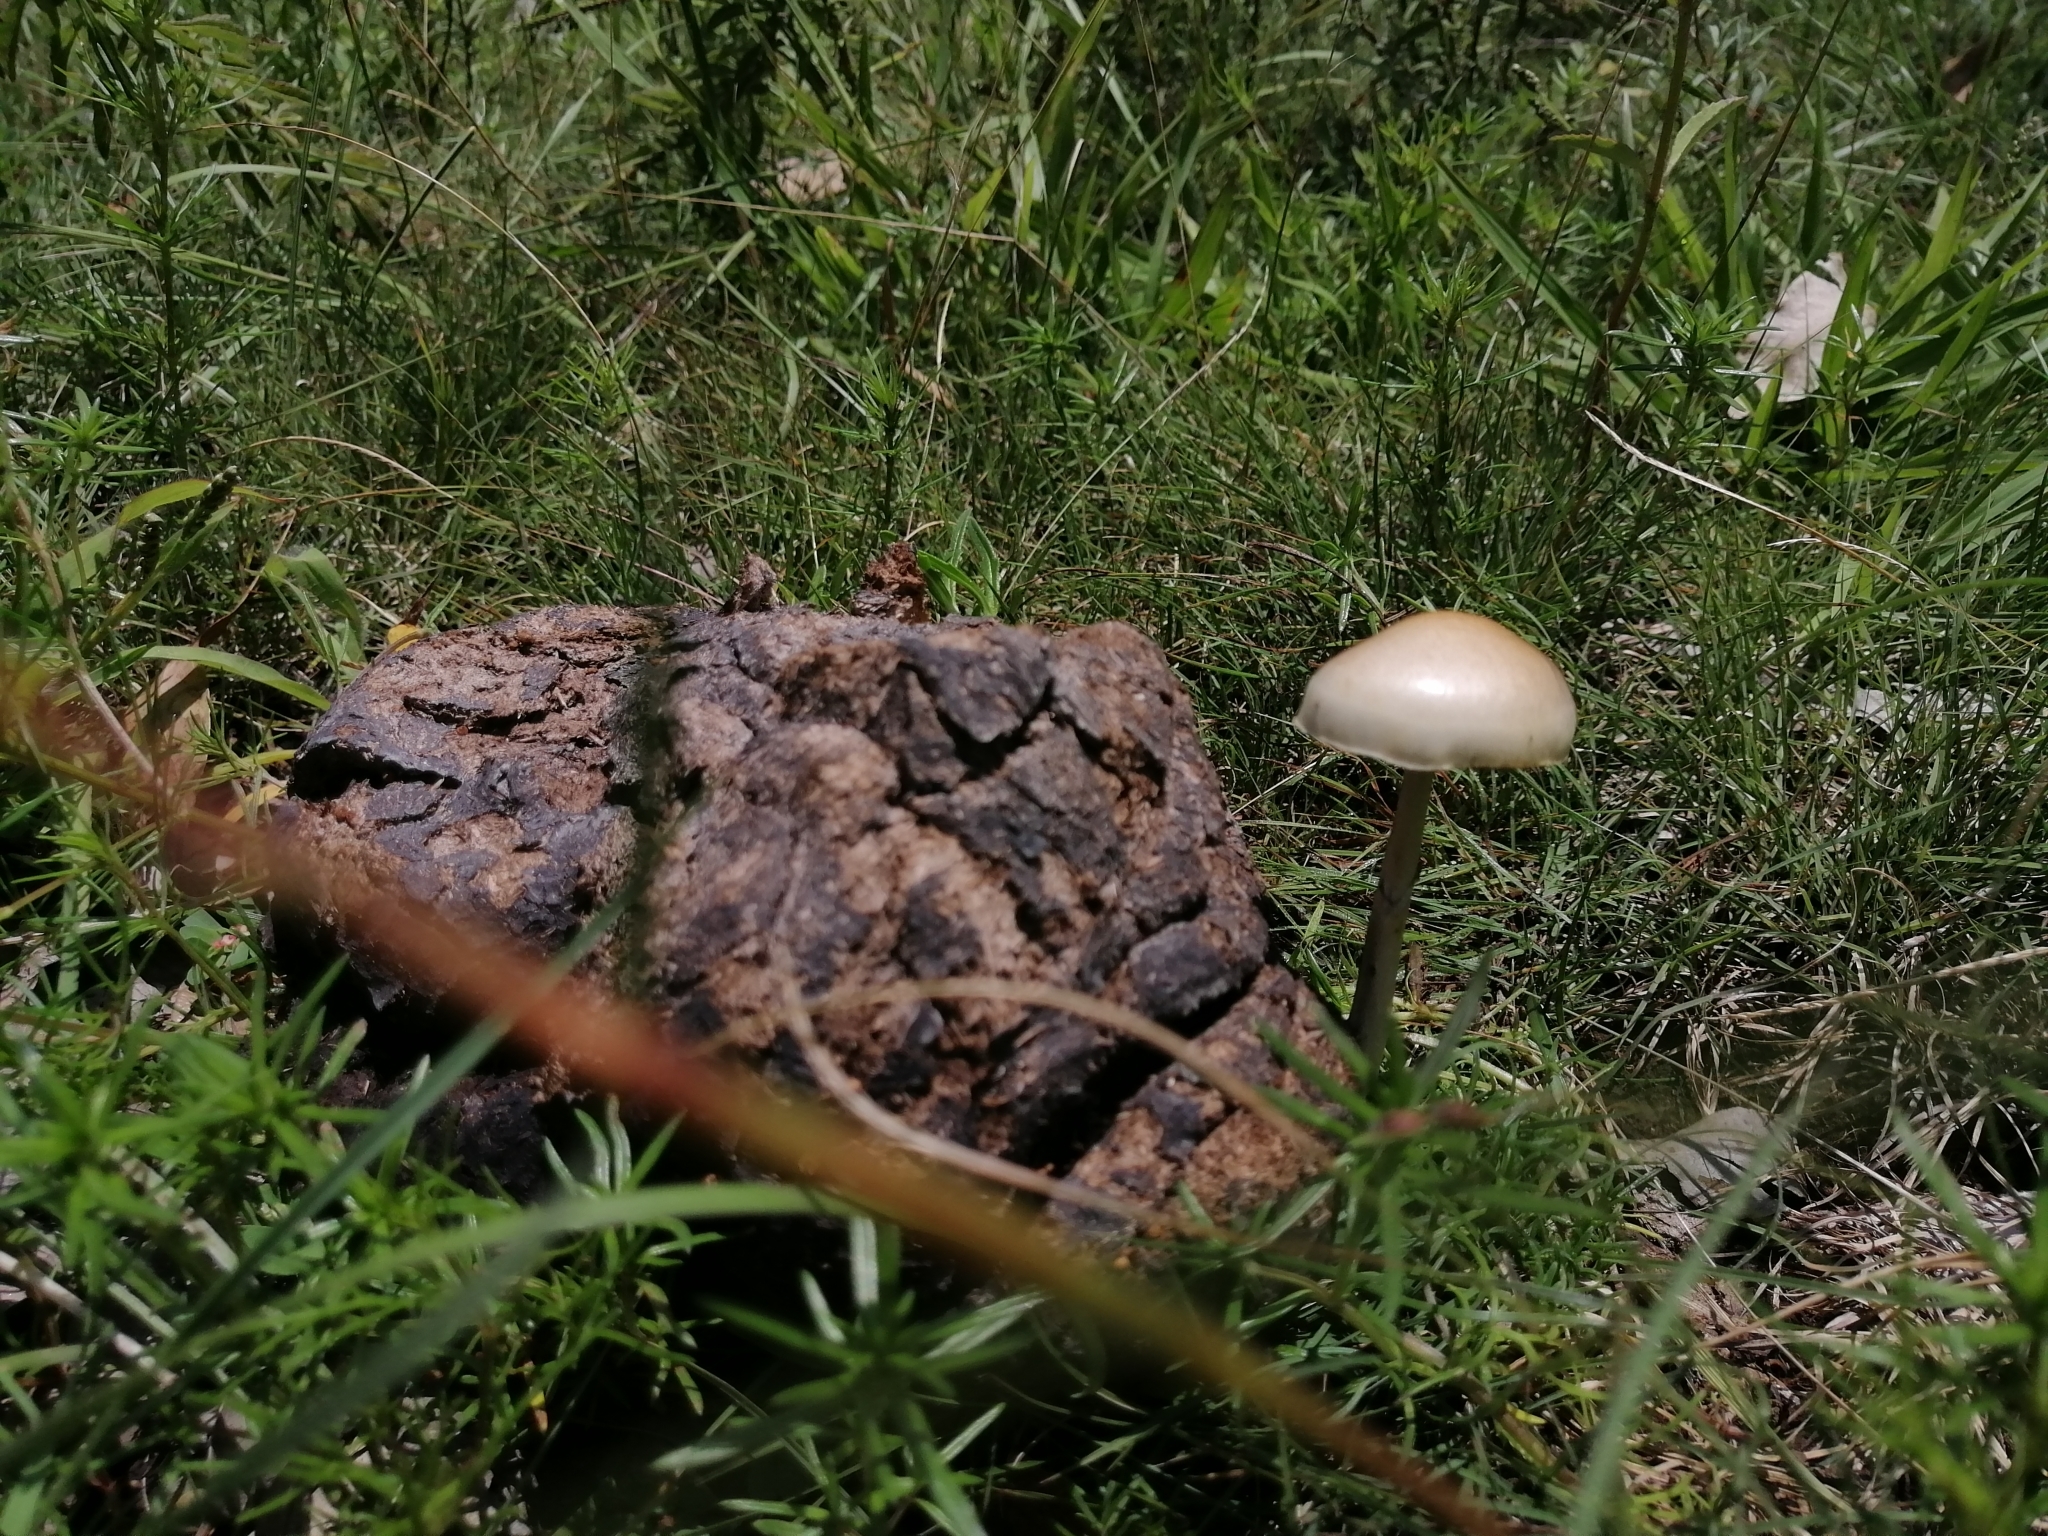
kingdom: Fungi
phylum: Basidiomycota
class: Agaricomycetes
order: Agaricales
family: Strophariaceae
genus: Protostropharia
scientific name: Protostropharia semiglobata
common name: Dung roundhead
